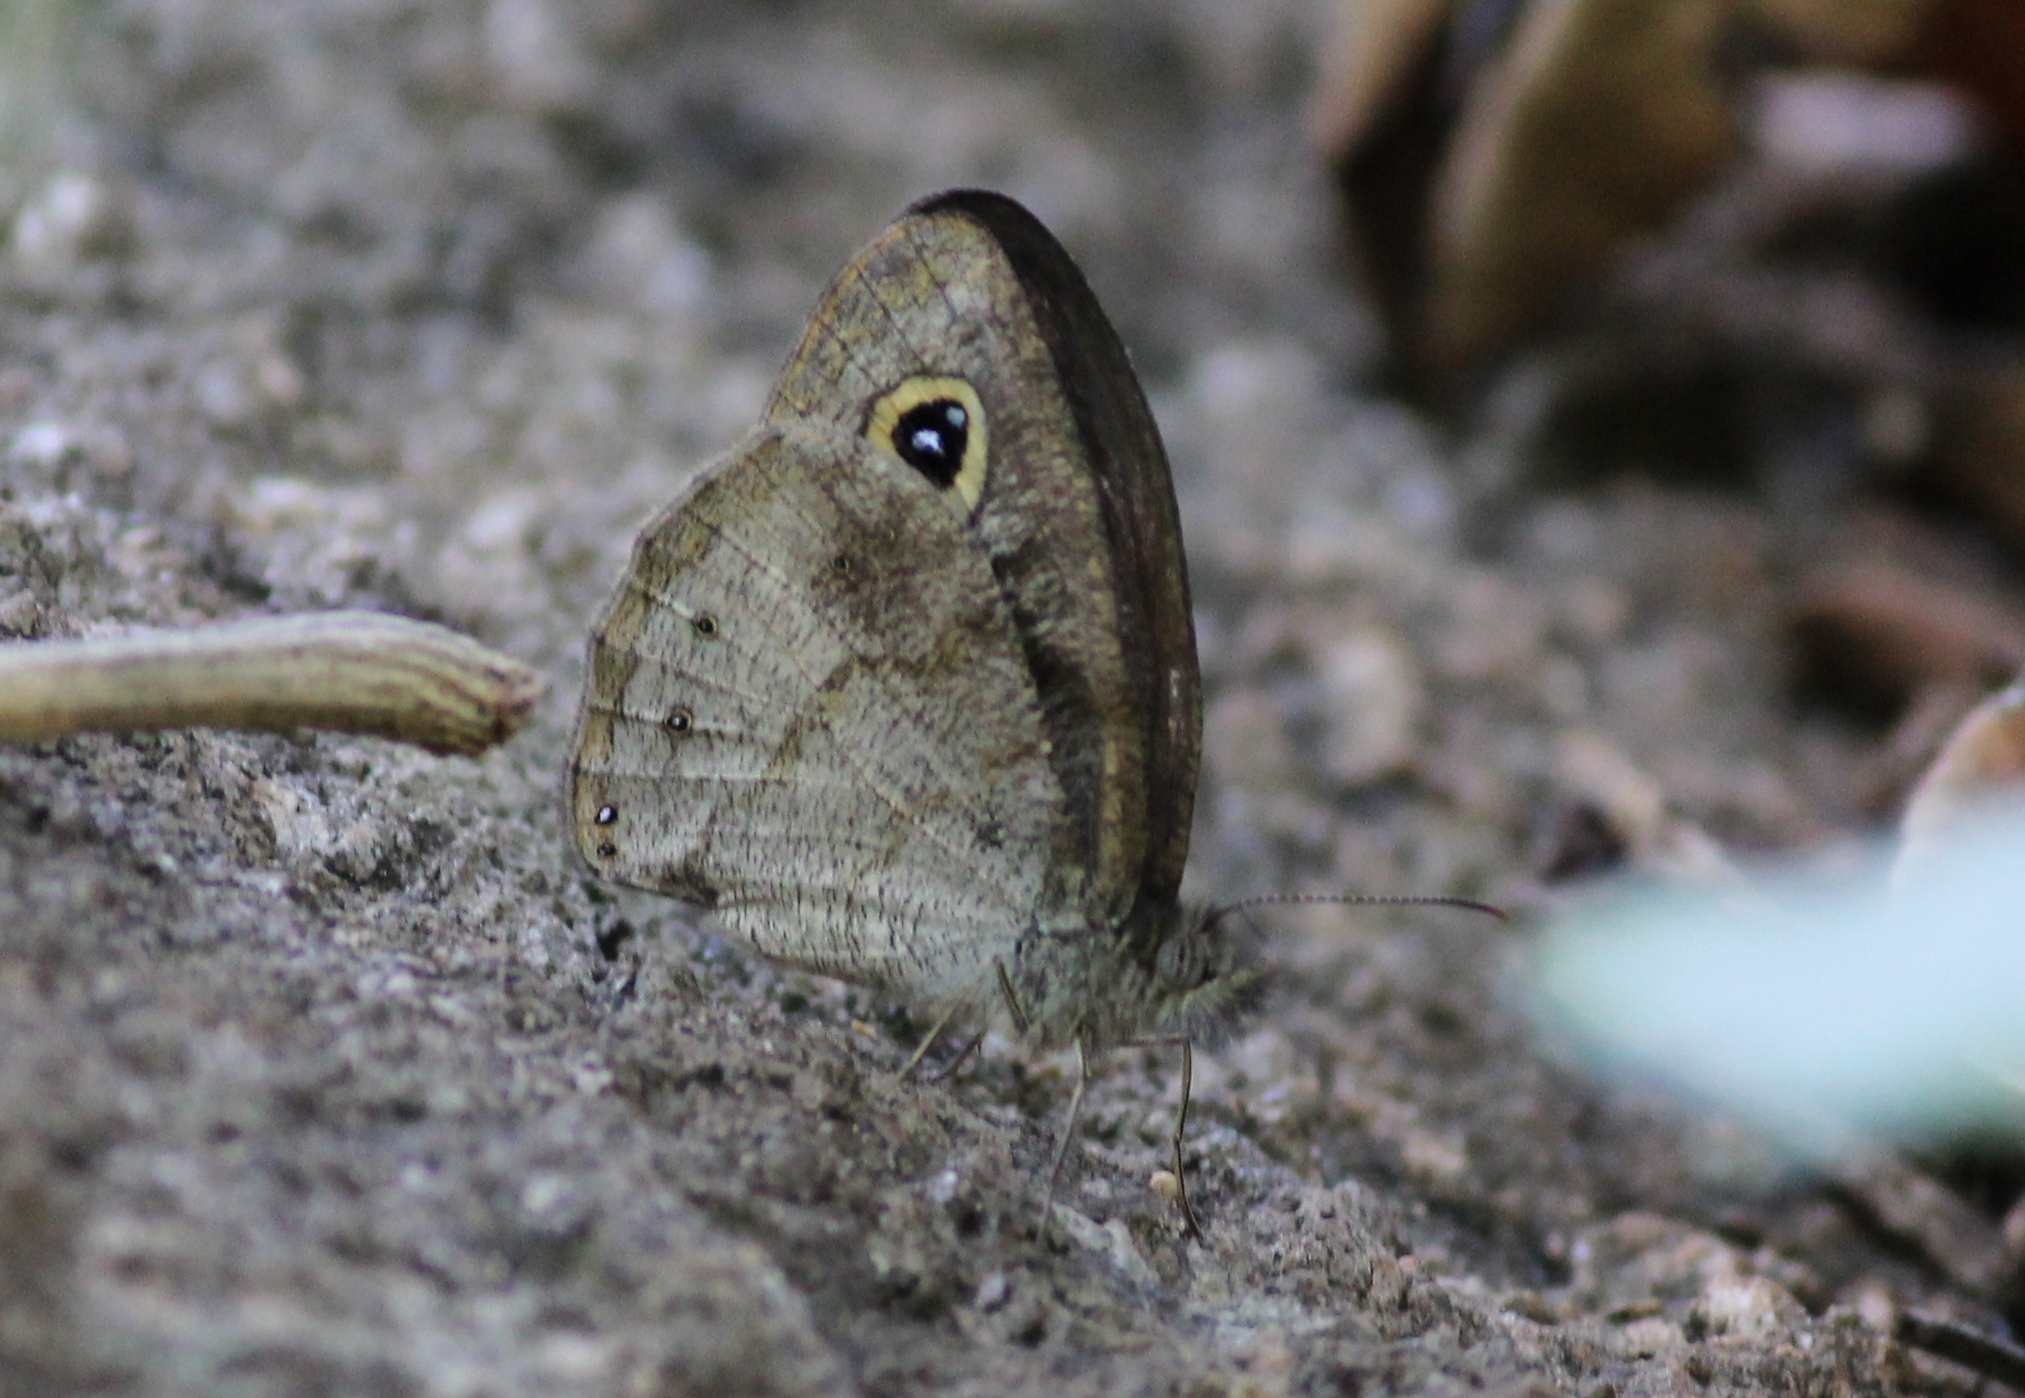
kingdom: Animalia
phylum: Arthropoda
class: Insecta
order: Lepidoptera
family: Nymphalidae
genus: Ypthima
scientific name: Ypthima baldus
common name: Common five-ring
